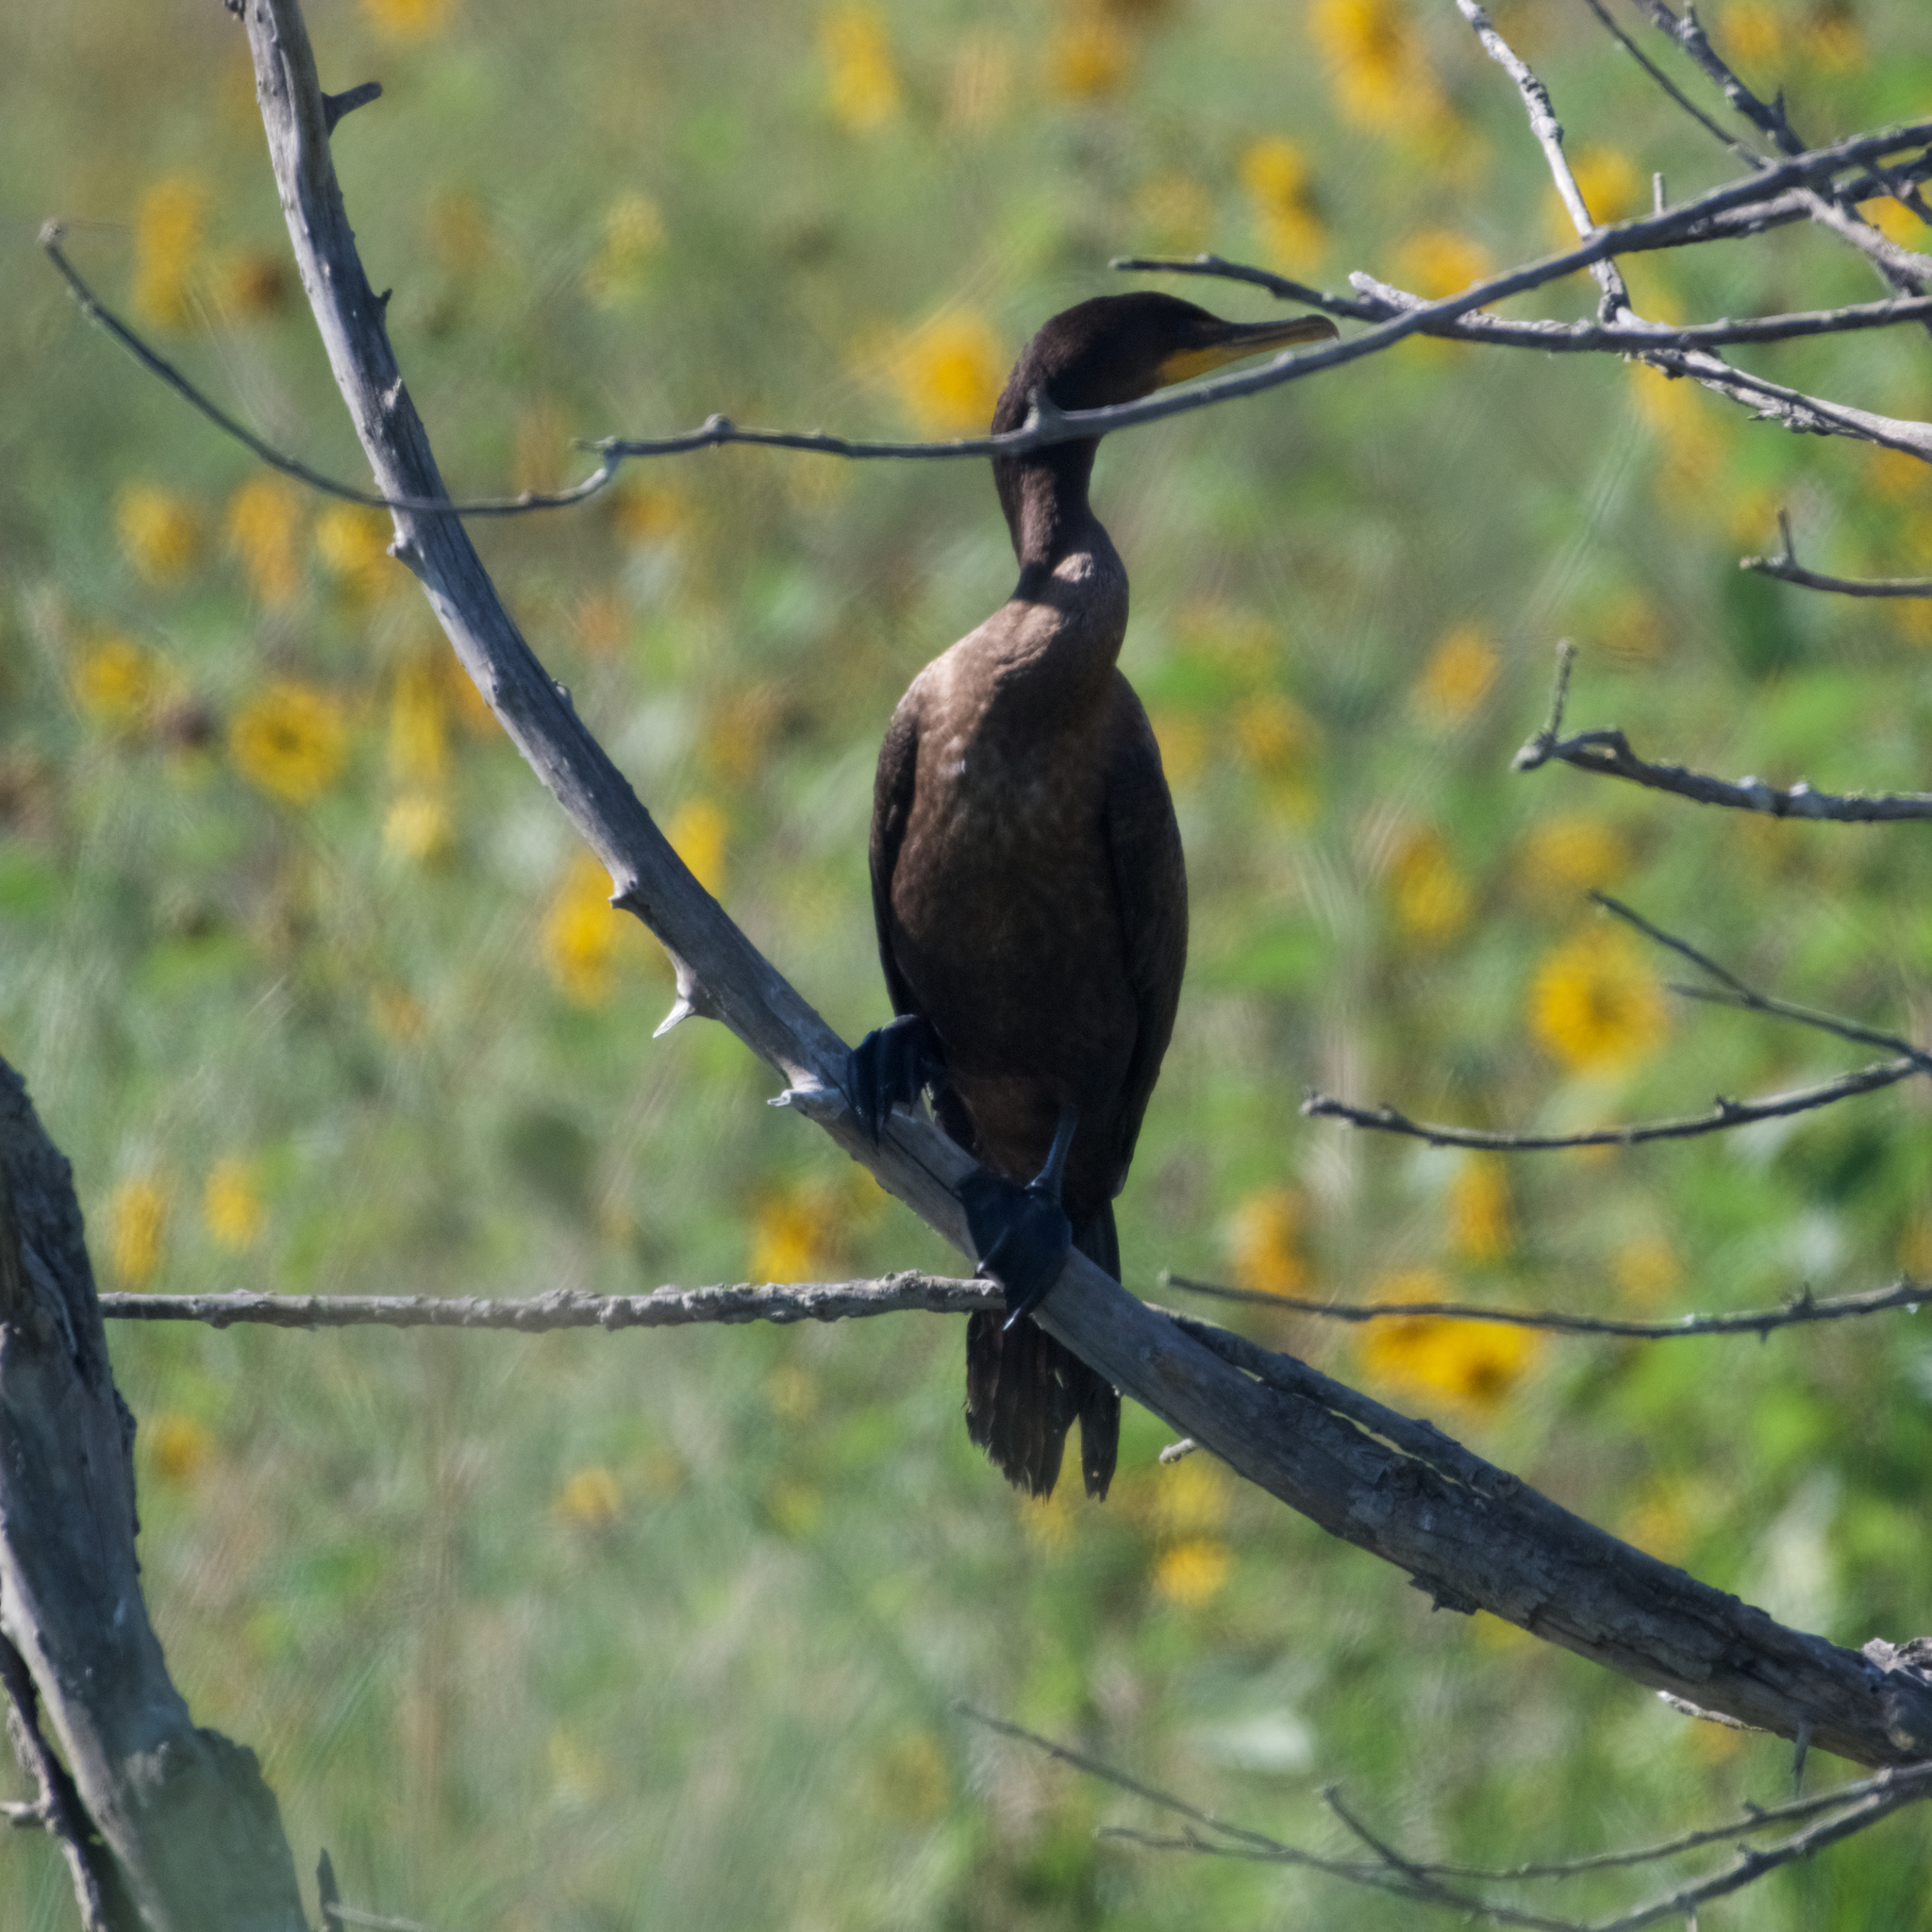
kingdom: Animalia
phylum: Chordata
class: Aves
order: Suliformes
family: Phalacrocoracidae
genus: Phalacrocorax
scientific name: Phalacrocorax auritus
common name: Double-crested cormorant
